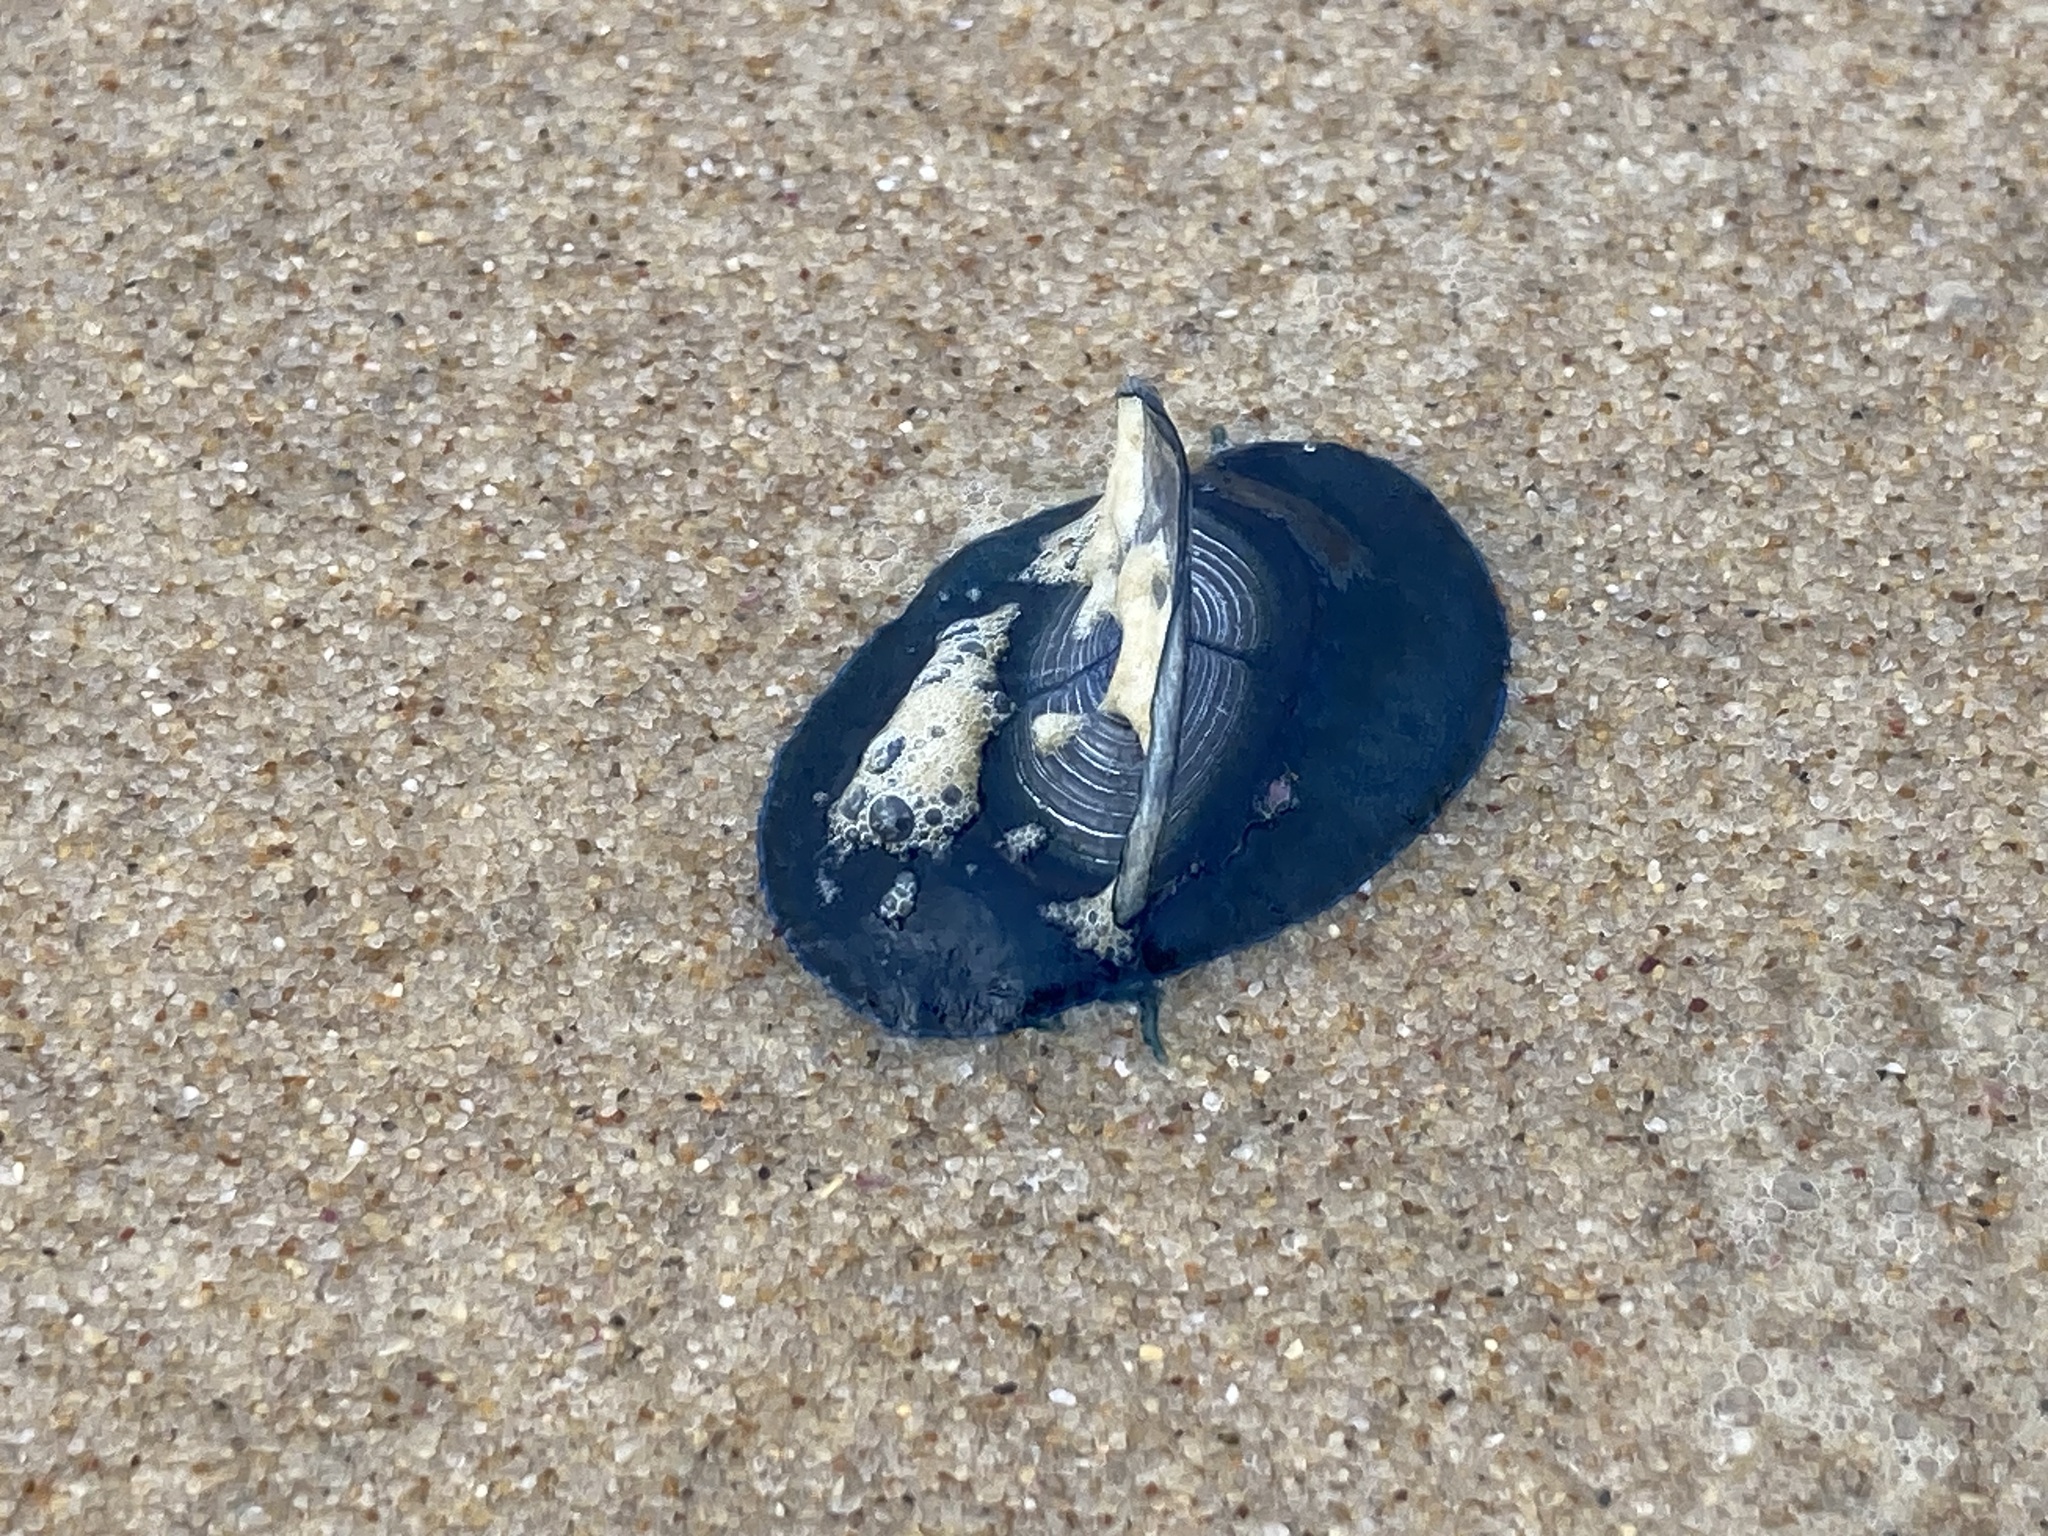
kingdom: Animalia
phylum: Cnidaria
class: Hydrozoa
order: Anthoathecata
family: Porpitidae
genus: Velella
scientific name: Velella velella
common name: By-the-wind-sailor
